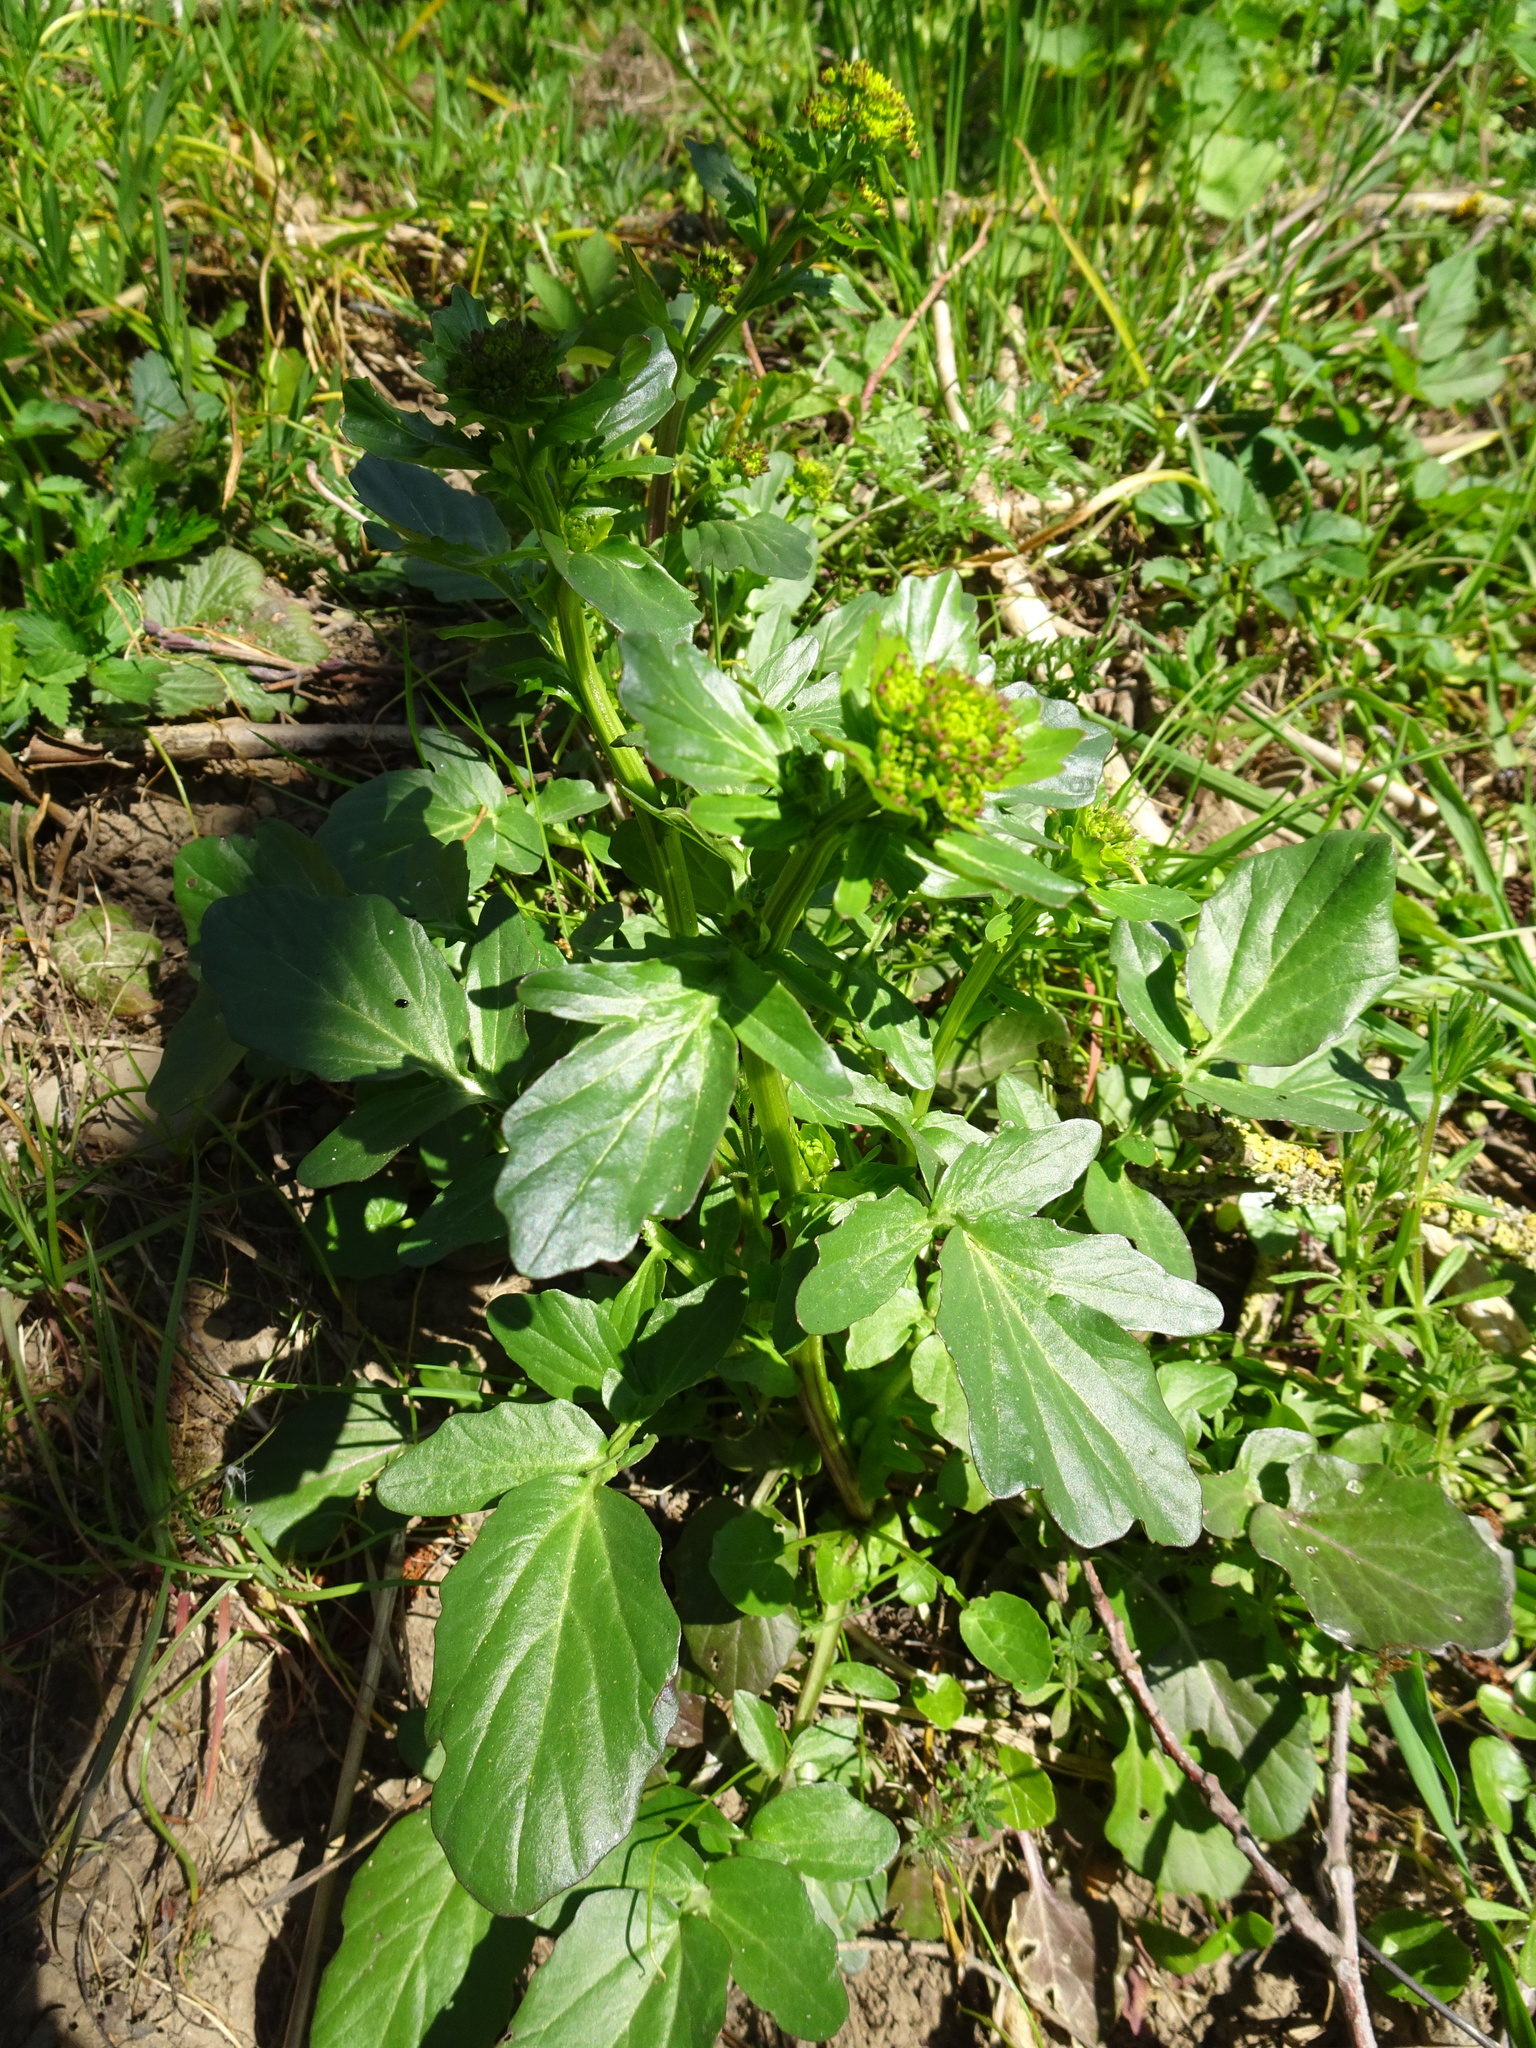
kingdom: Plantae
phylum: Tracheophyta
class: Magnoliopsida
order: Brassicales
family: Brassicaceae
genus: Barbarea
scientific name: Barbarea vulgaris
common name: Cressy-greens
